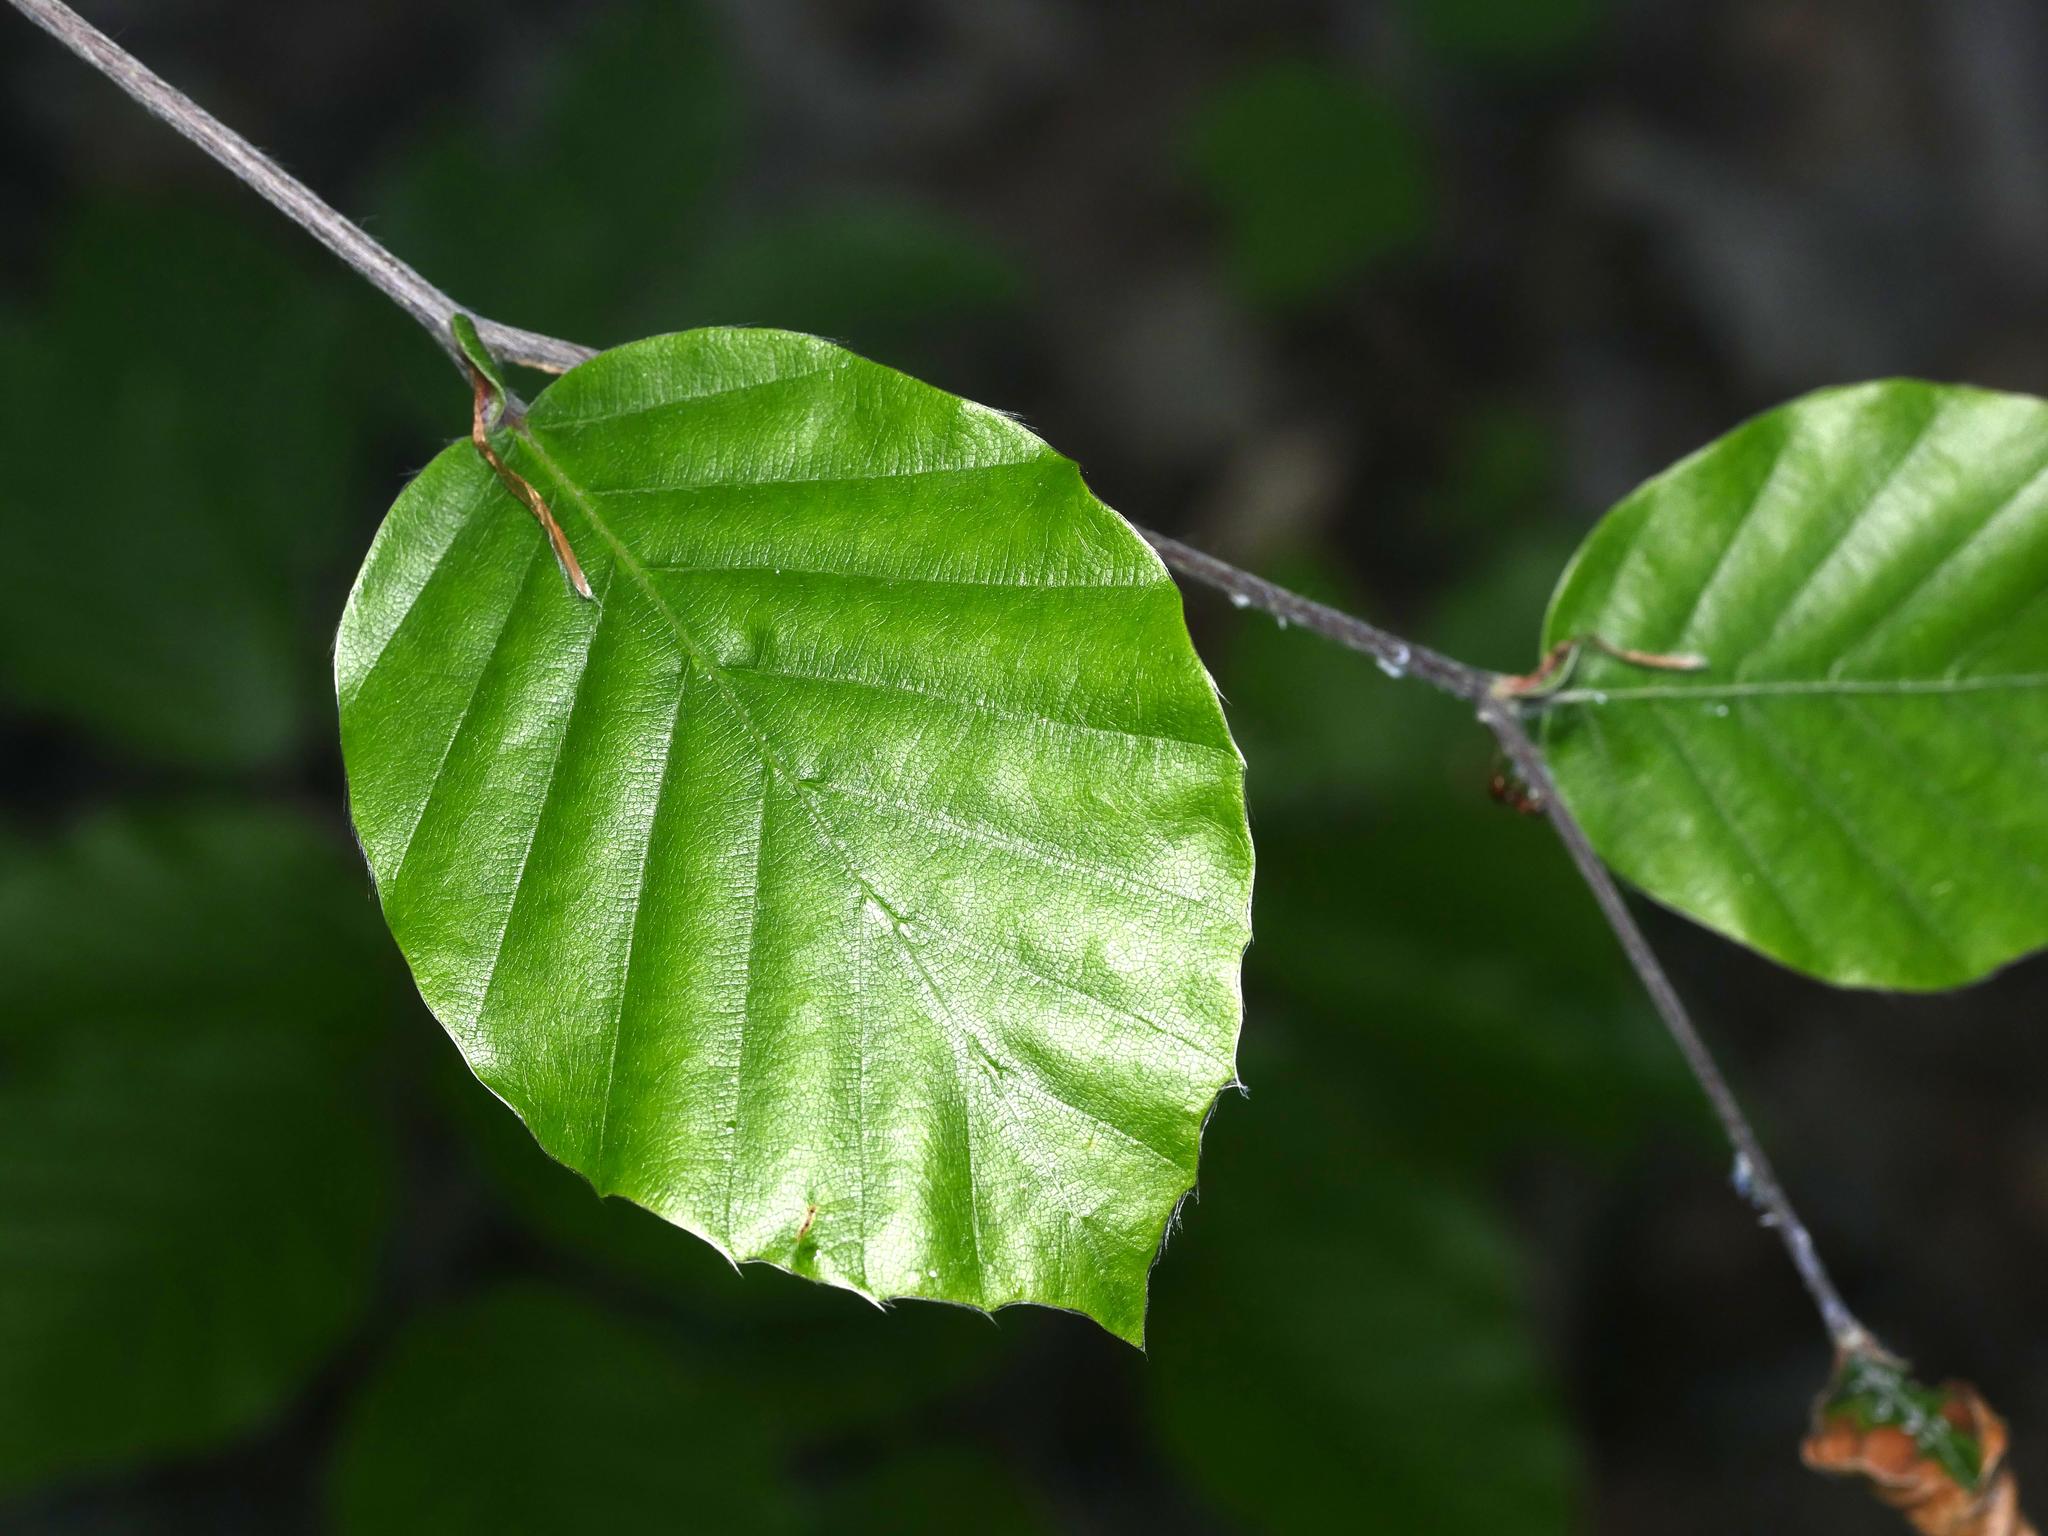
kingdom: Plantae
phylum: Tracheophyta
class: Magnoliopsida
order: Fagales
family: Fagaceae
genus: Fagus
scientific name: Fagus sylvatica
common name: Beech
